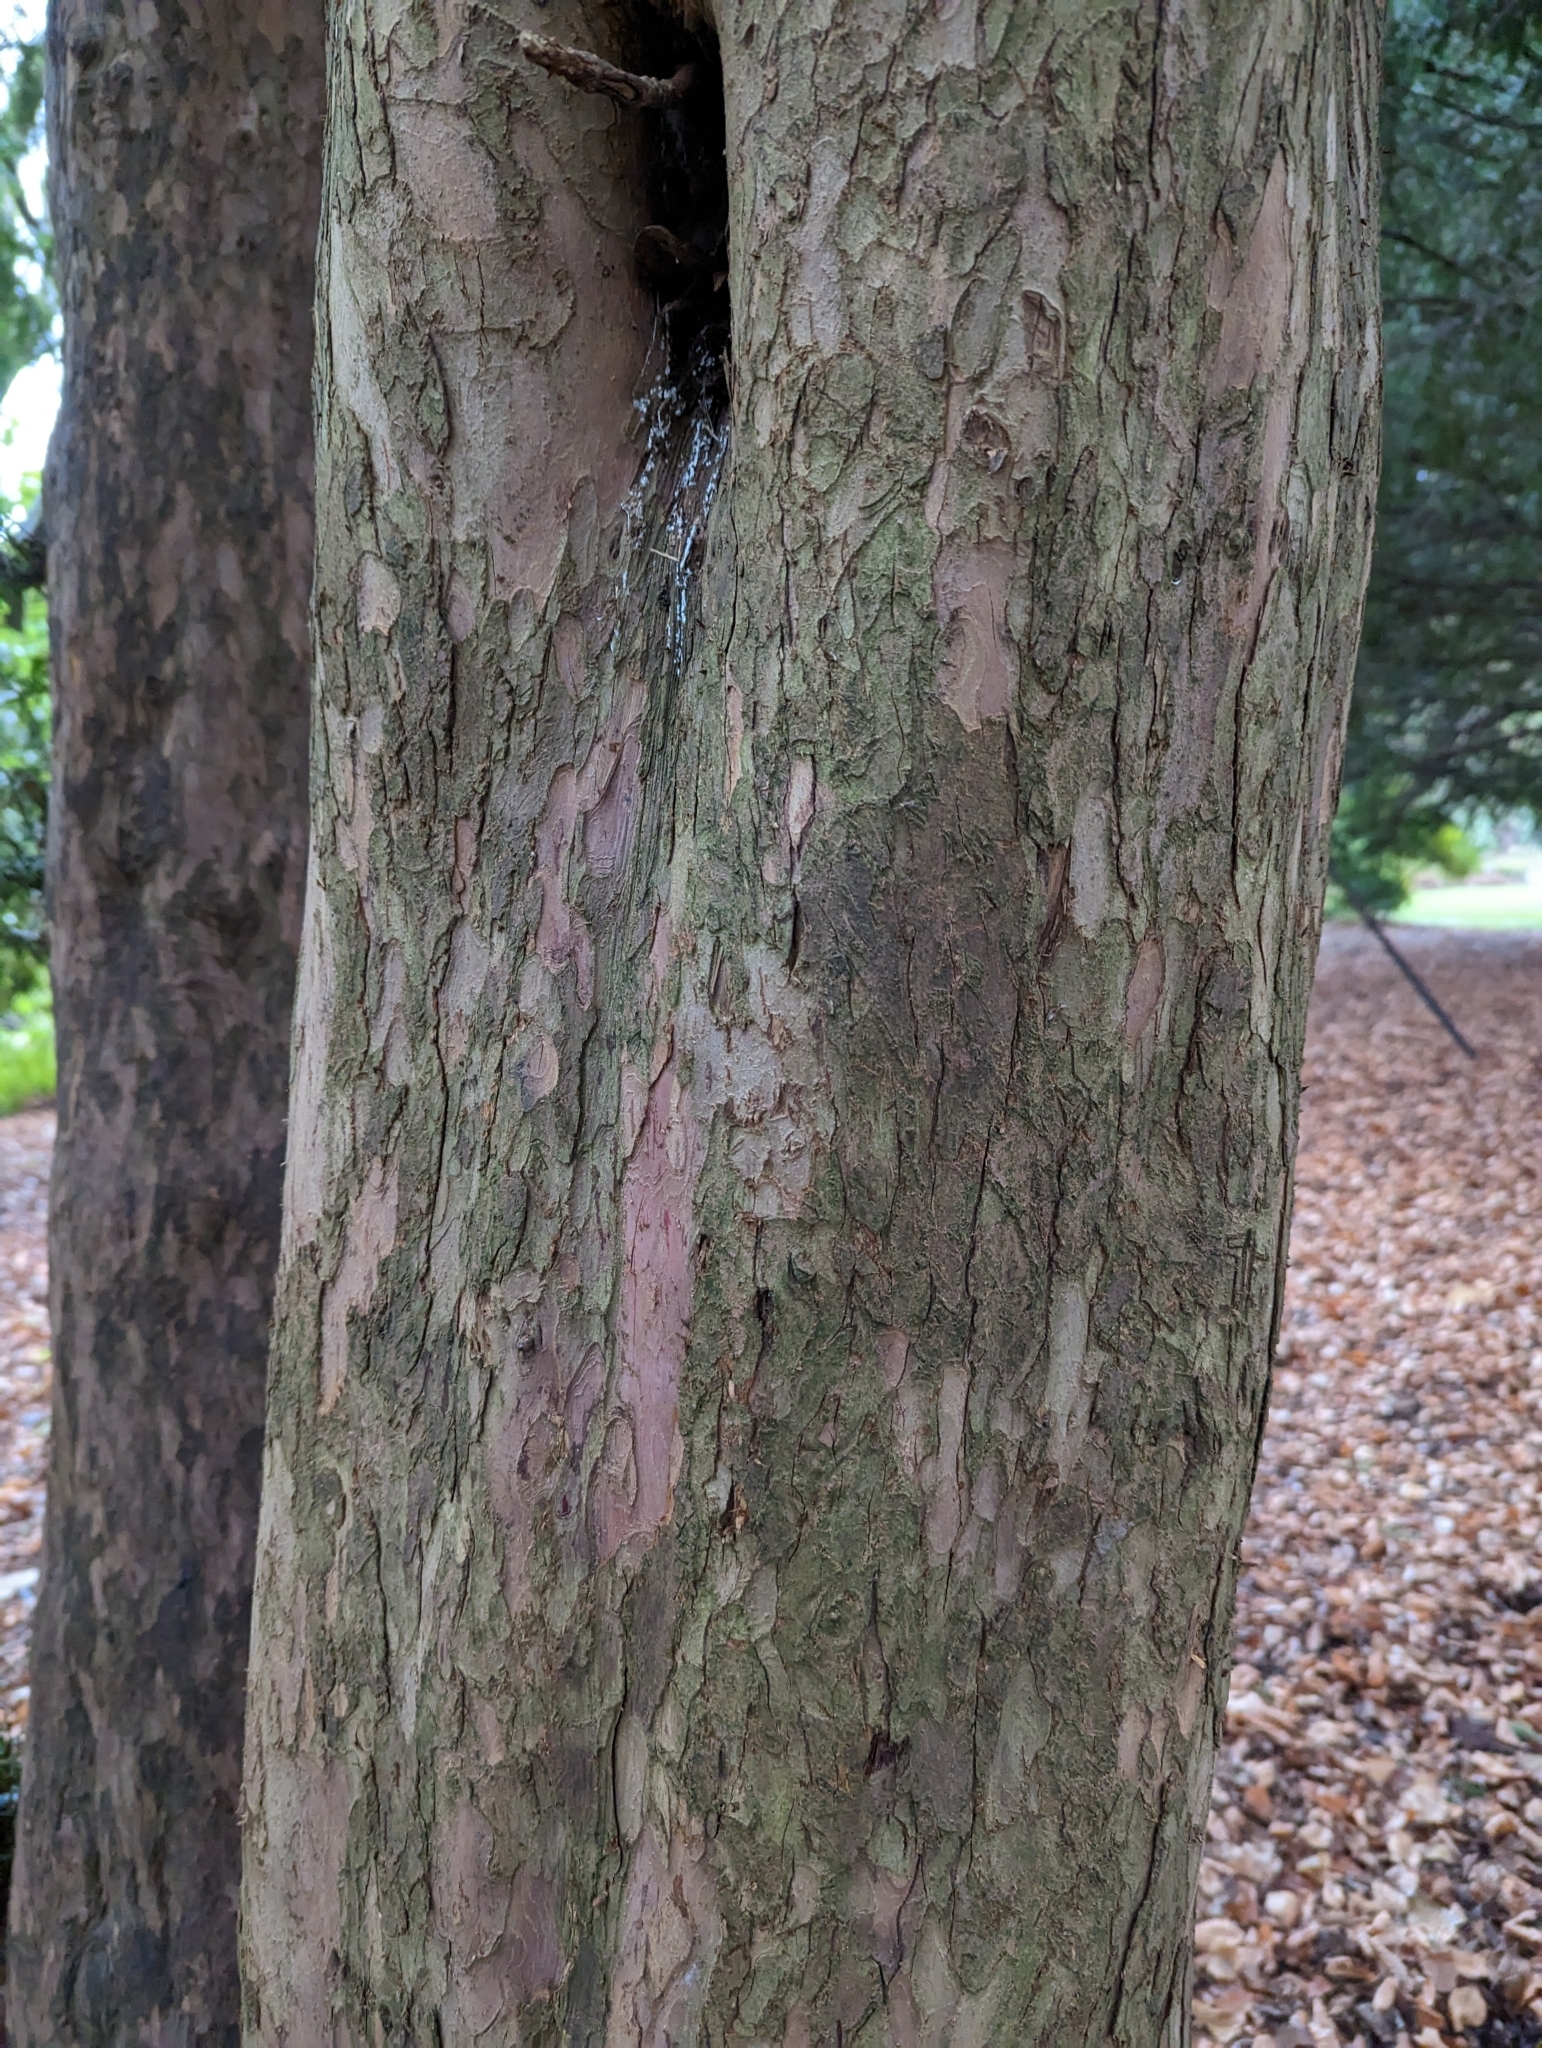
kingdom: Plantae
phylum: Tracheophyta
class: Pinopsida
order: Pinales
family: Taxaceae
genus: Taxus
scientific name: Taxus brevifolia
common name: Pacific yew
